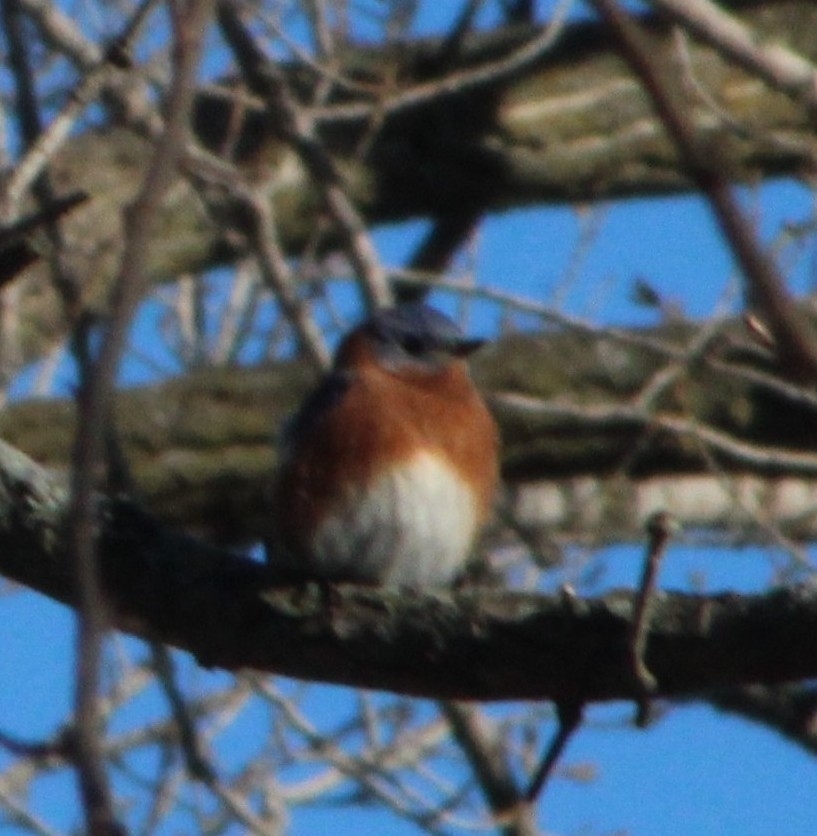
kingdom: Animalia
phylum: Chordata
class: Aves
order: Passeriformes
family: Turdidae
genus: Sialia
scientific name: Sialia sialis
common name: Eastern bluebird
